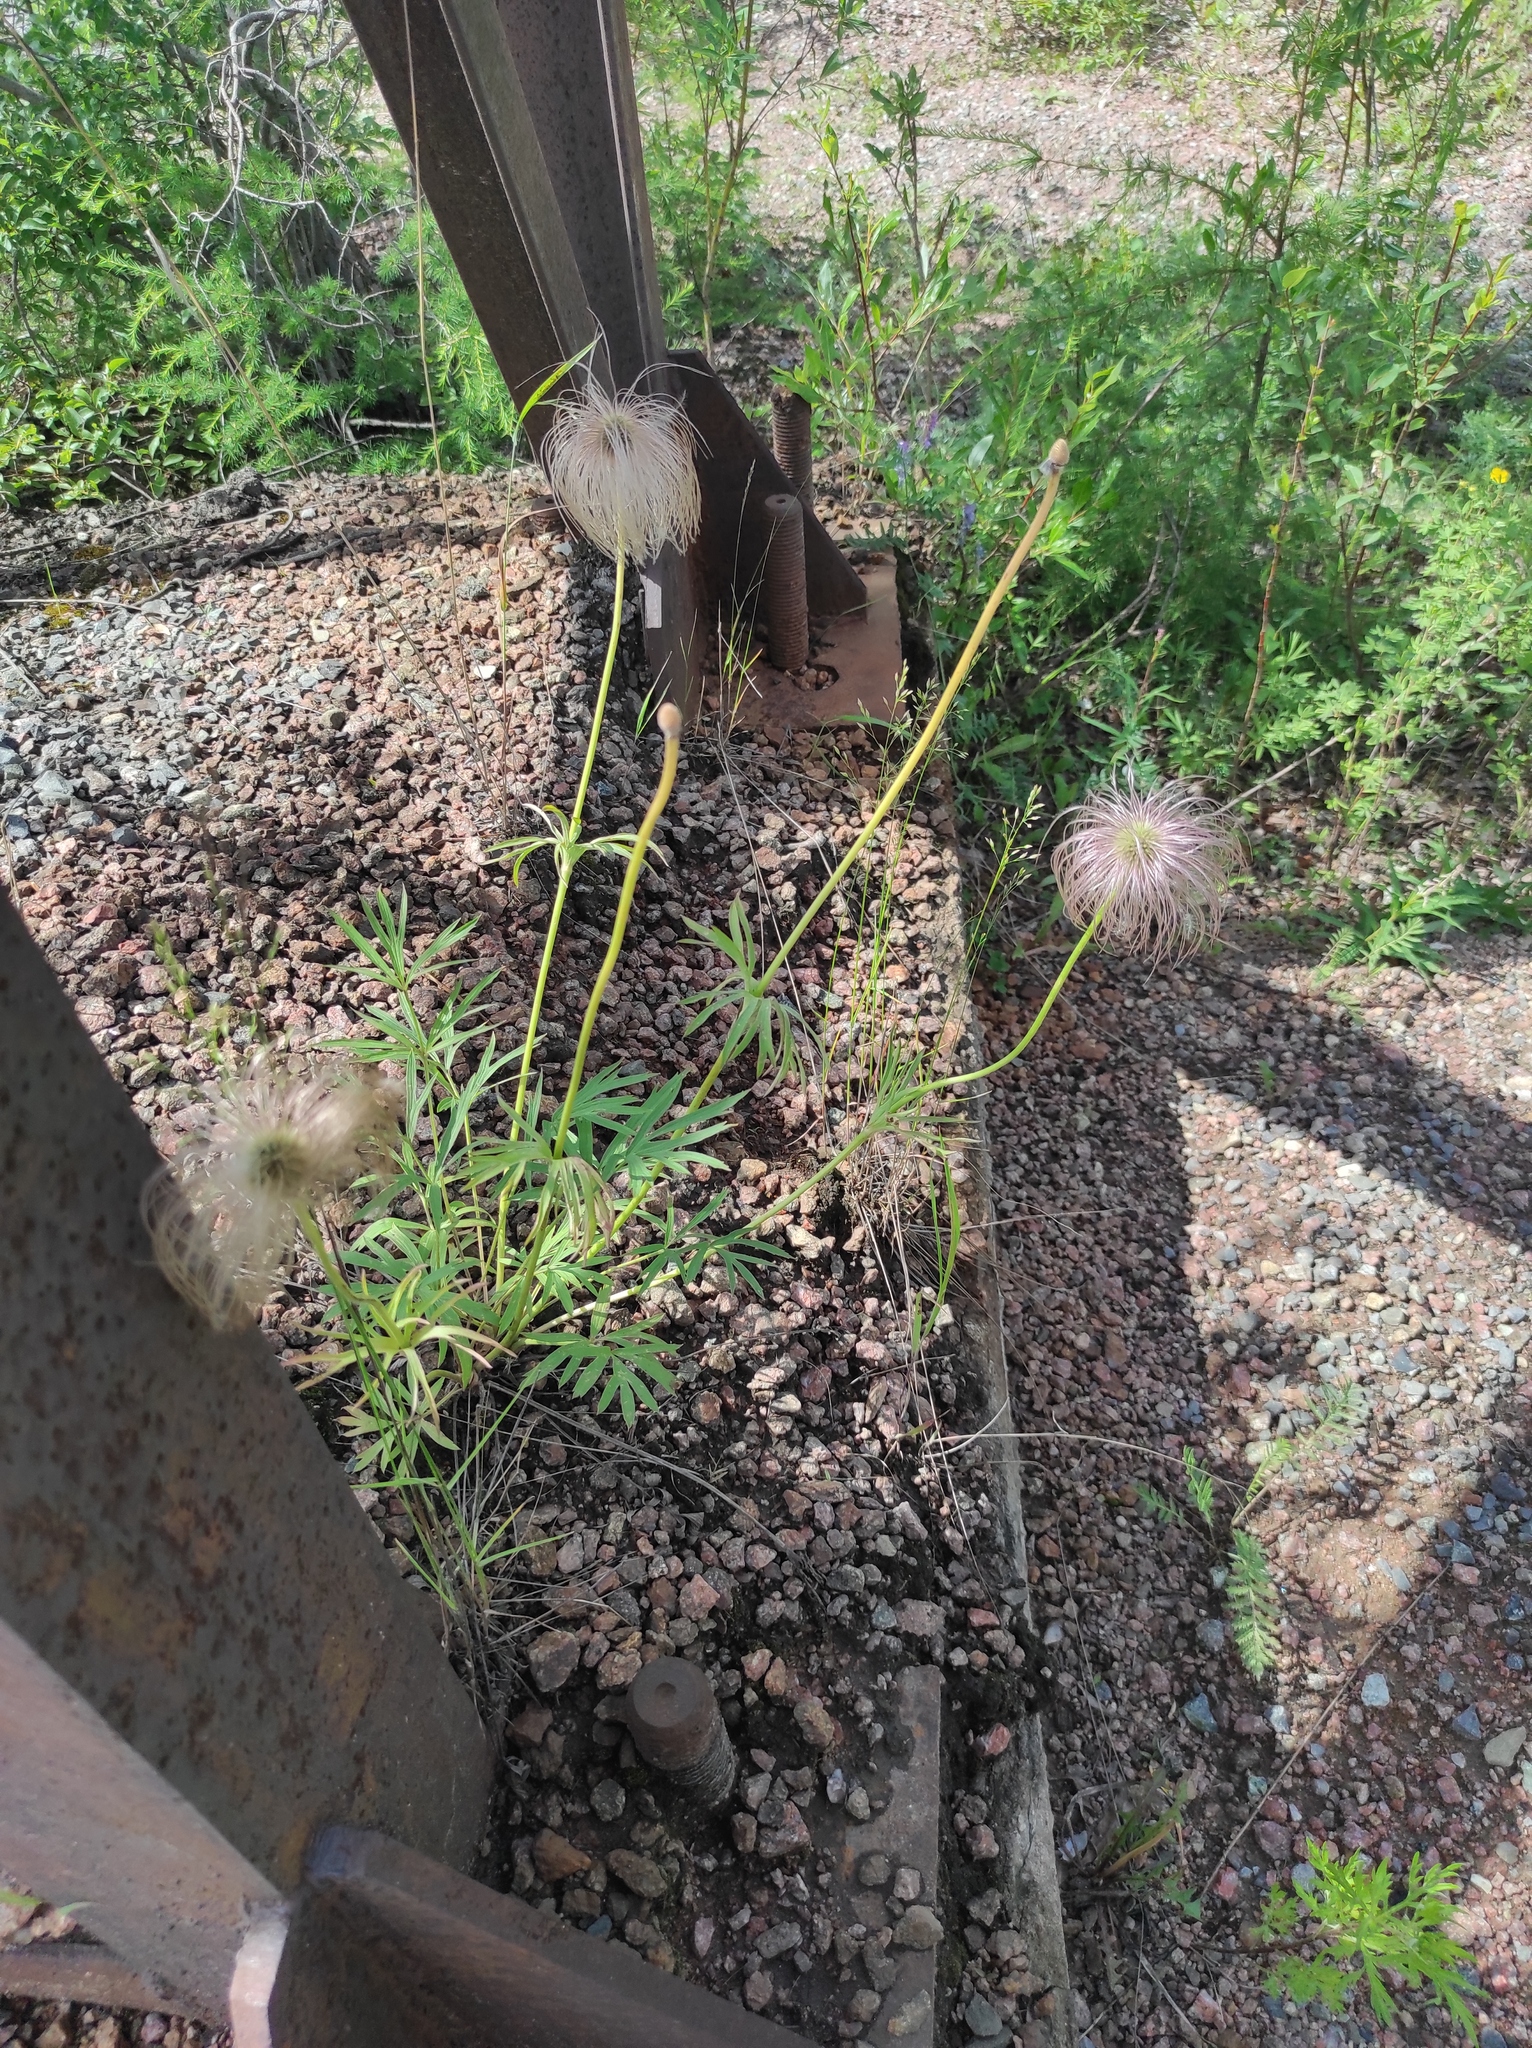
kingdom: Plantae
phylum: Tracheophyta
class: Magnoliopsida
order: Ranunculales
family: Ranunculaceae
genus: Pulsatilla
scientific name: Pulsatilla dahurica
